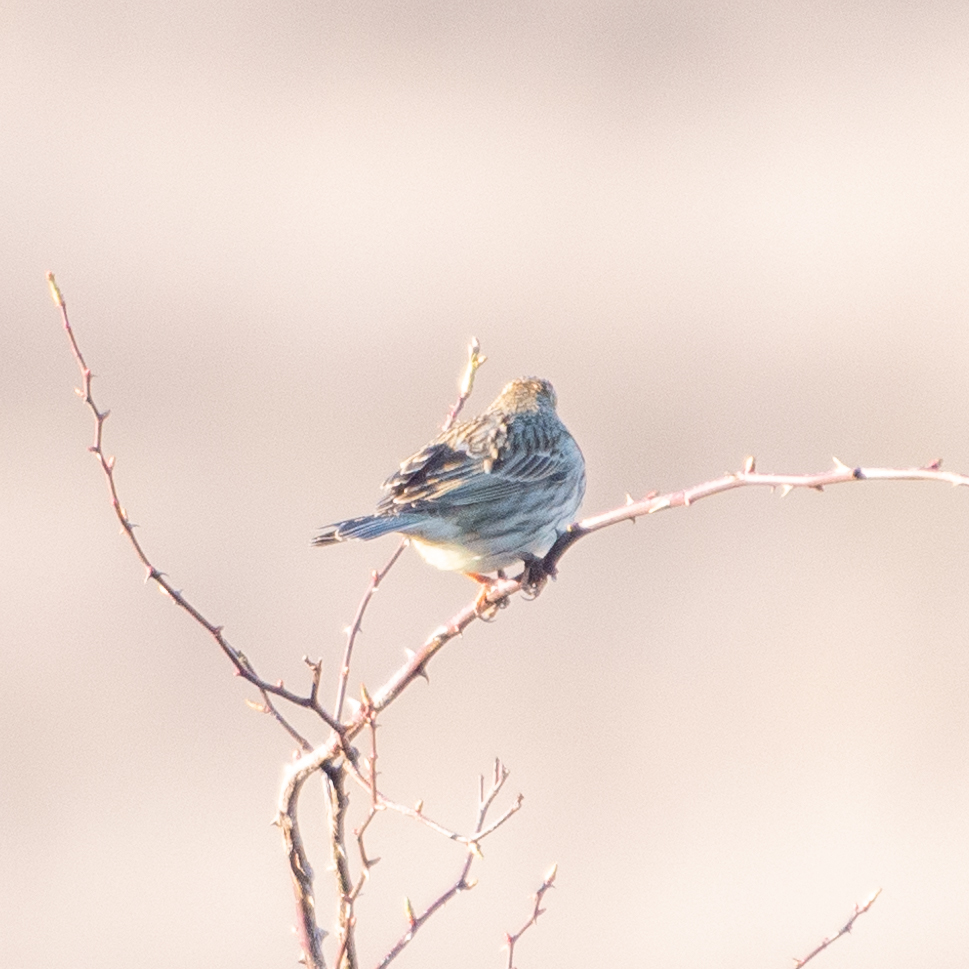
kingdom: Animalia
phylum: Chordata
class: Aves
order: Passeriformes
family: Emberizidae
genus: Emberiza
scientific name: Emberiza calandra
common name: Corn bunting
